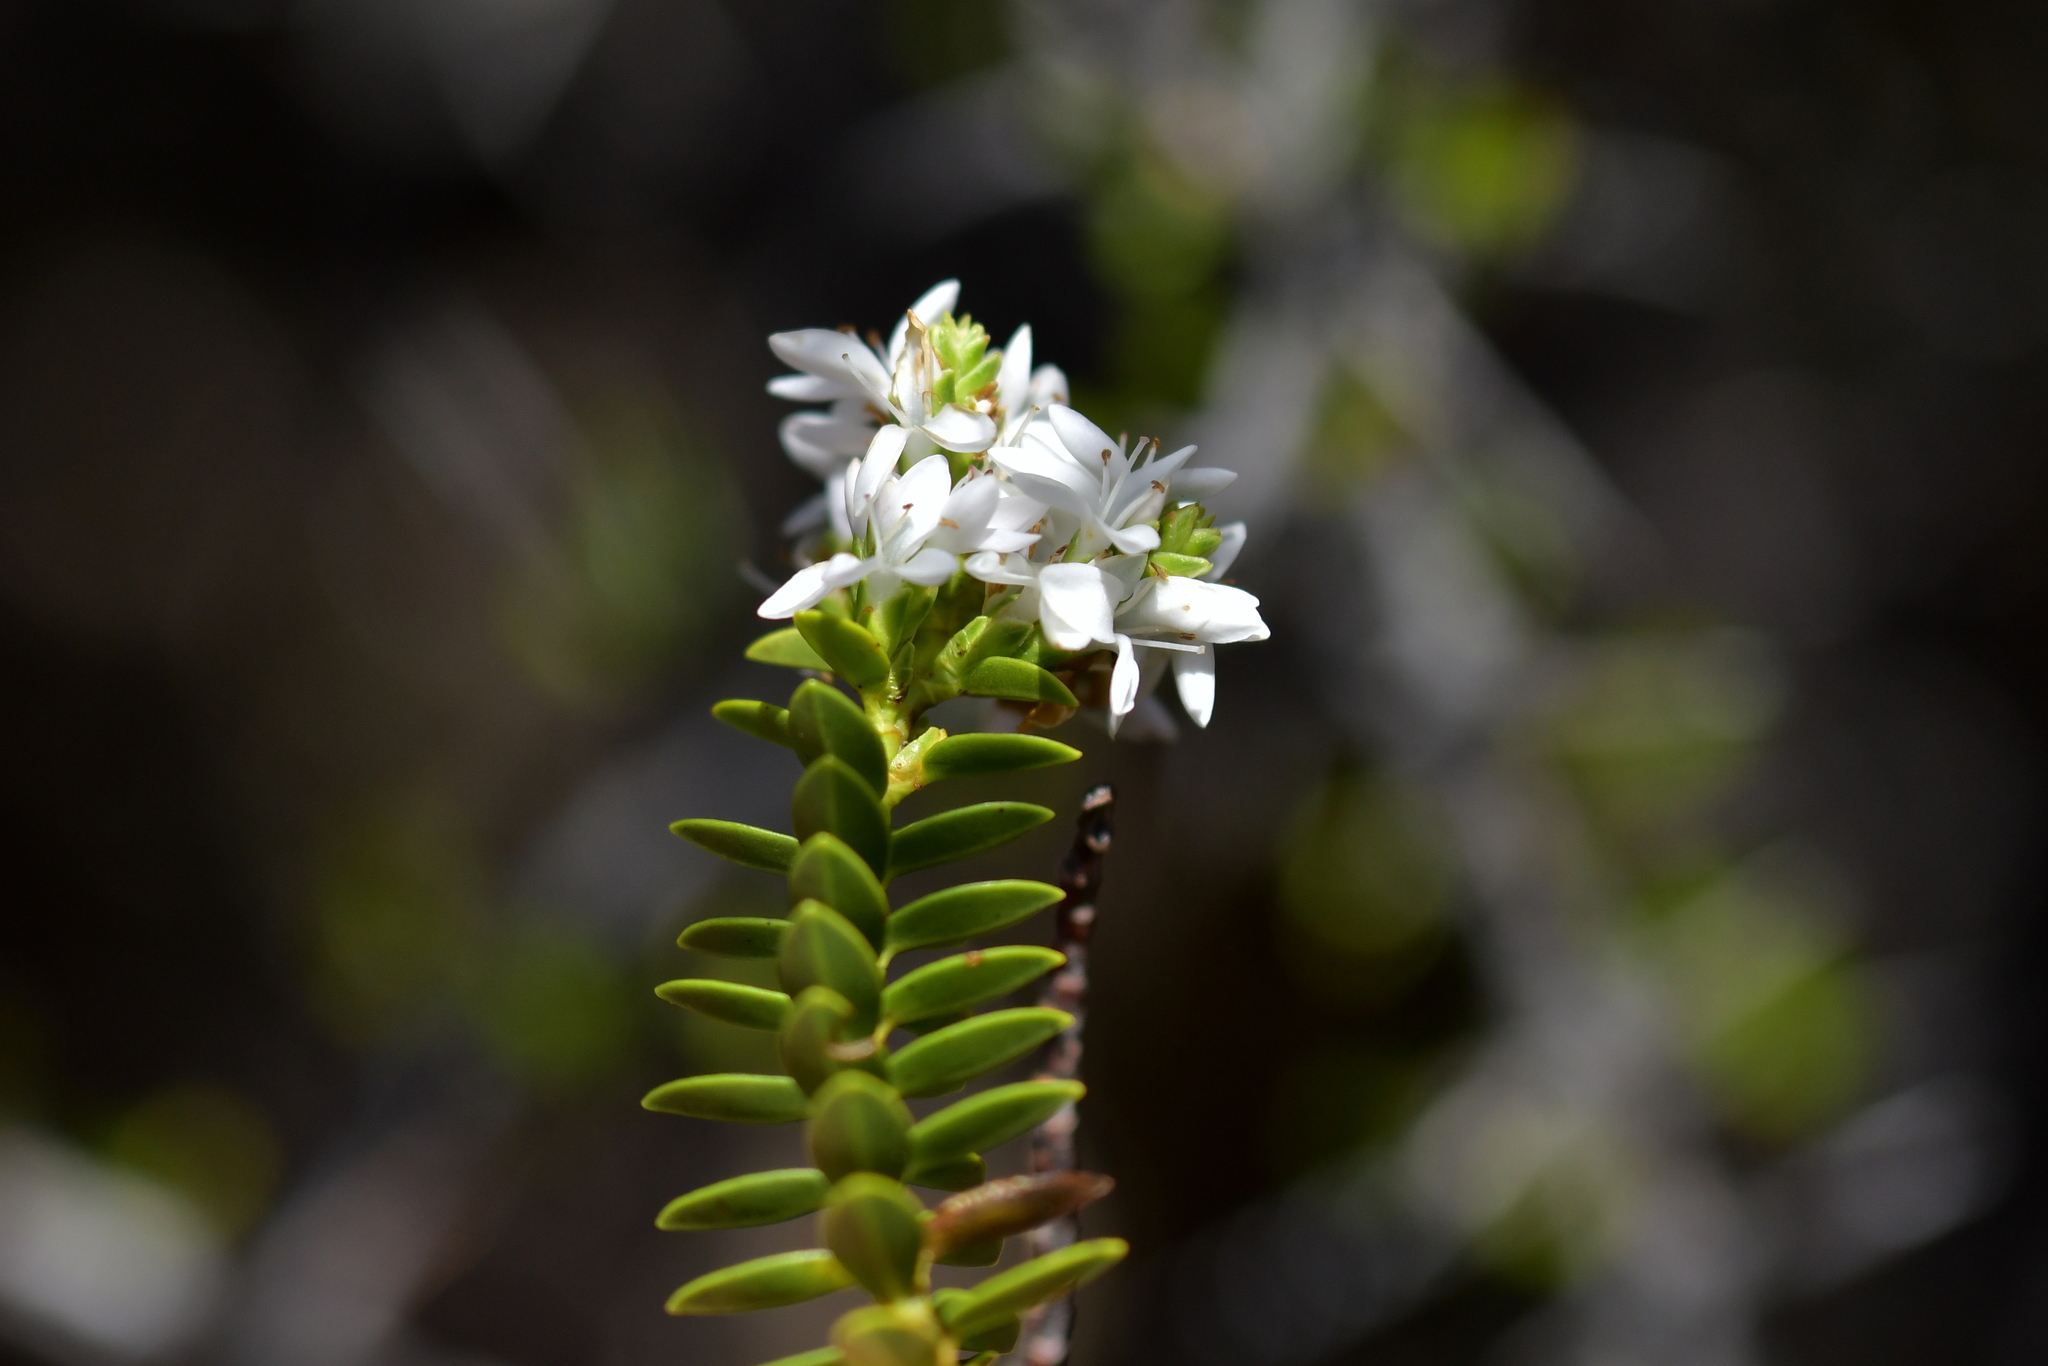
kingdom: Plantae
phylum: Tracheophyta
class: Magnoliopsida
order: Lamiales
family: Plantaginaceae
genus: Veronica
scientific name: Veronica odora
